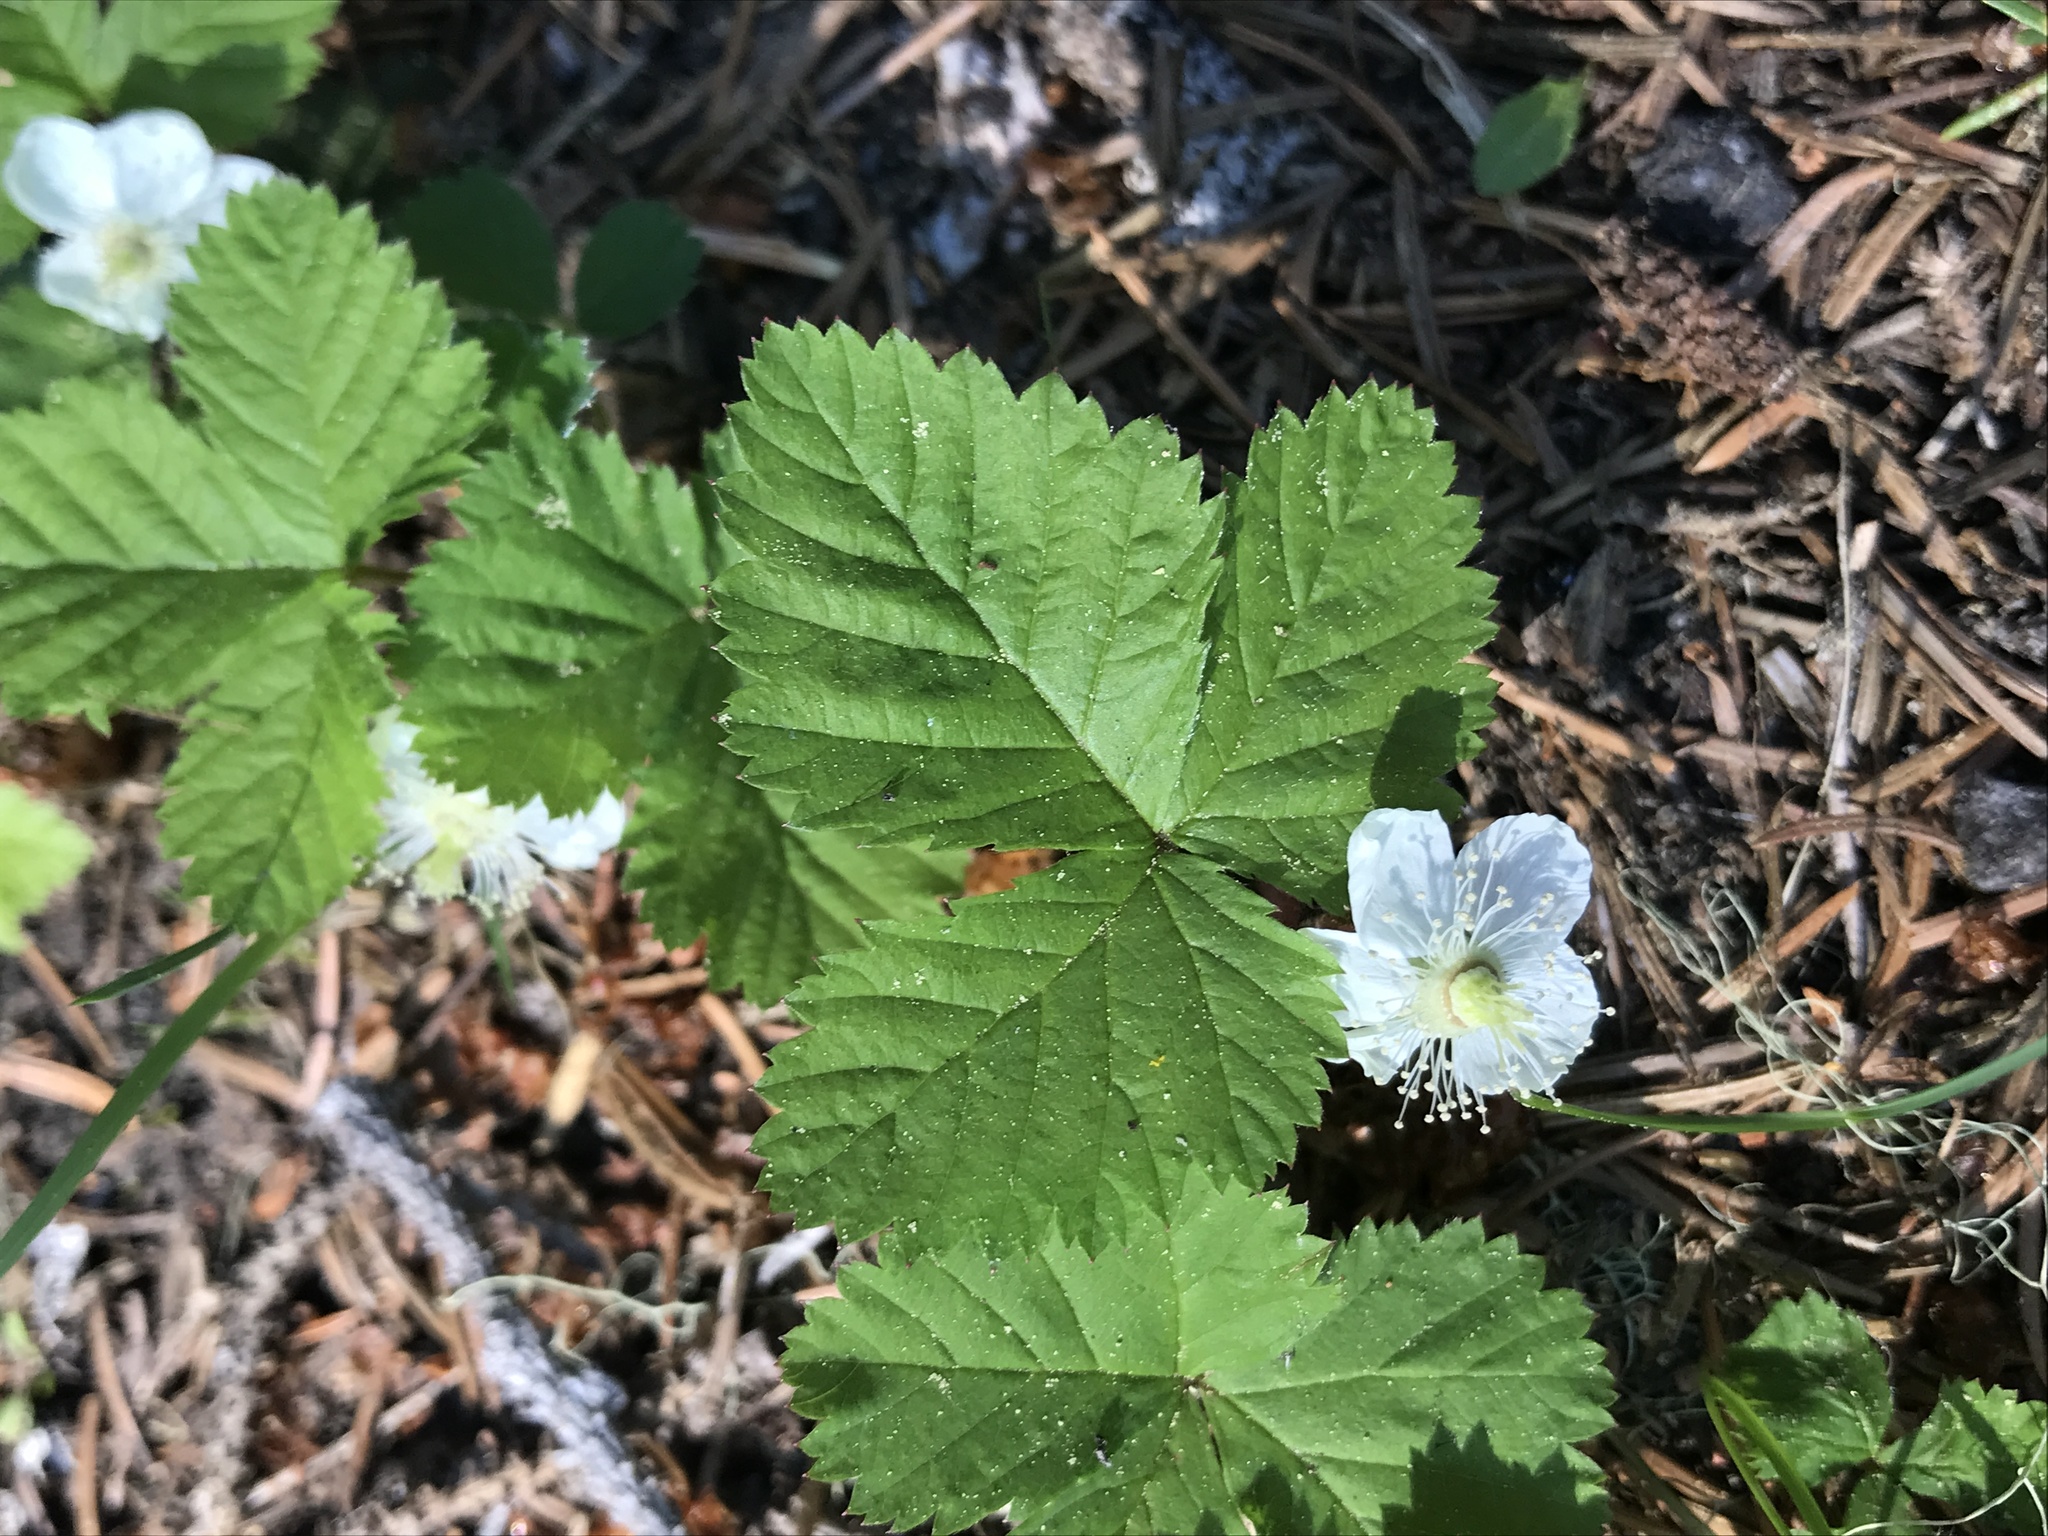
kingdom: Plantae
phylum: Tracheophyta
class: Magnoliopsida
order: Rosales
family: Rosaceae
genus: Rubus
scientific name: Rubus lasiococcus
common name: Dwarf bramble
